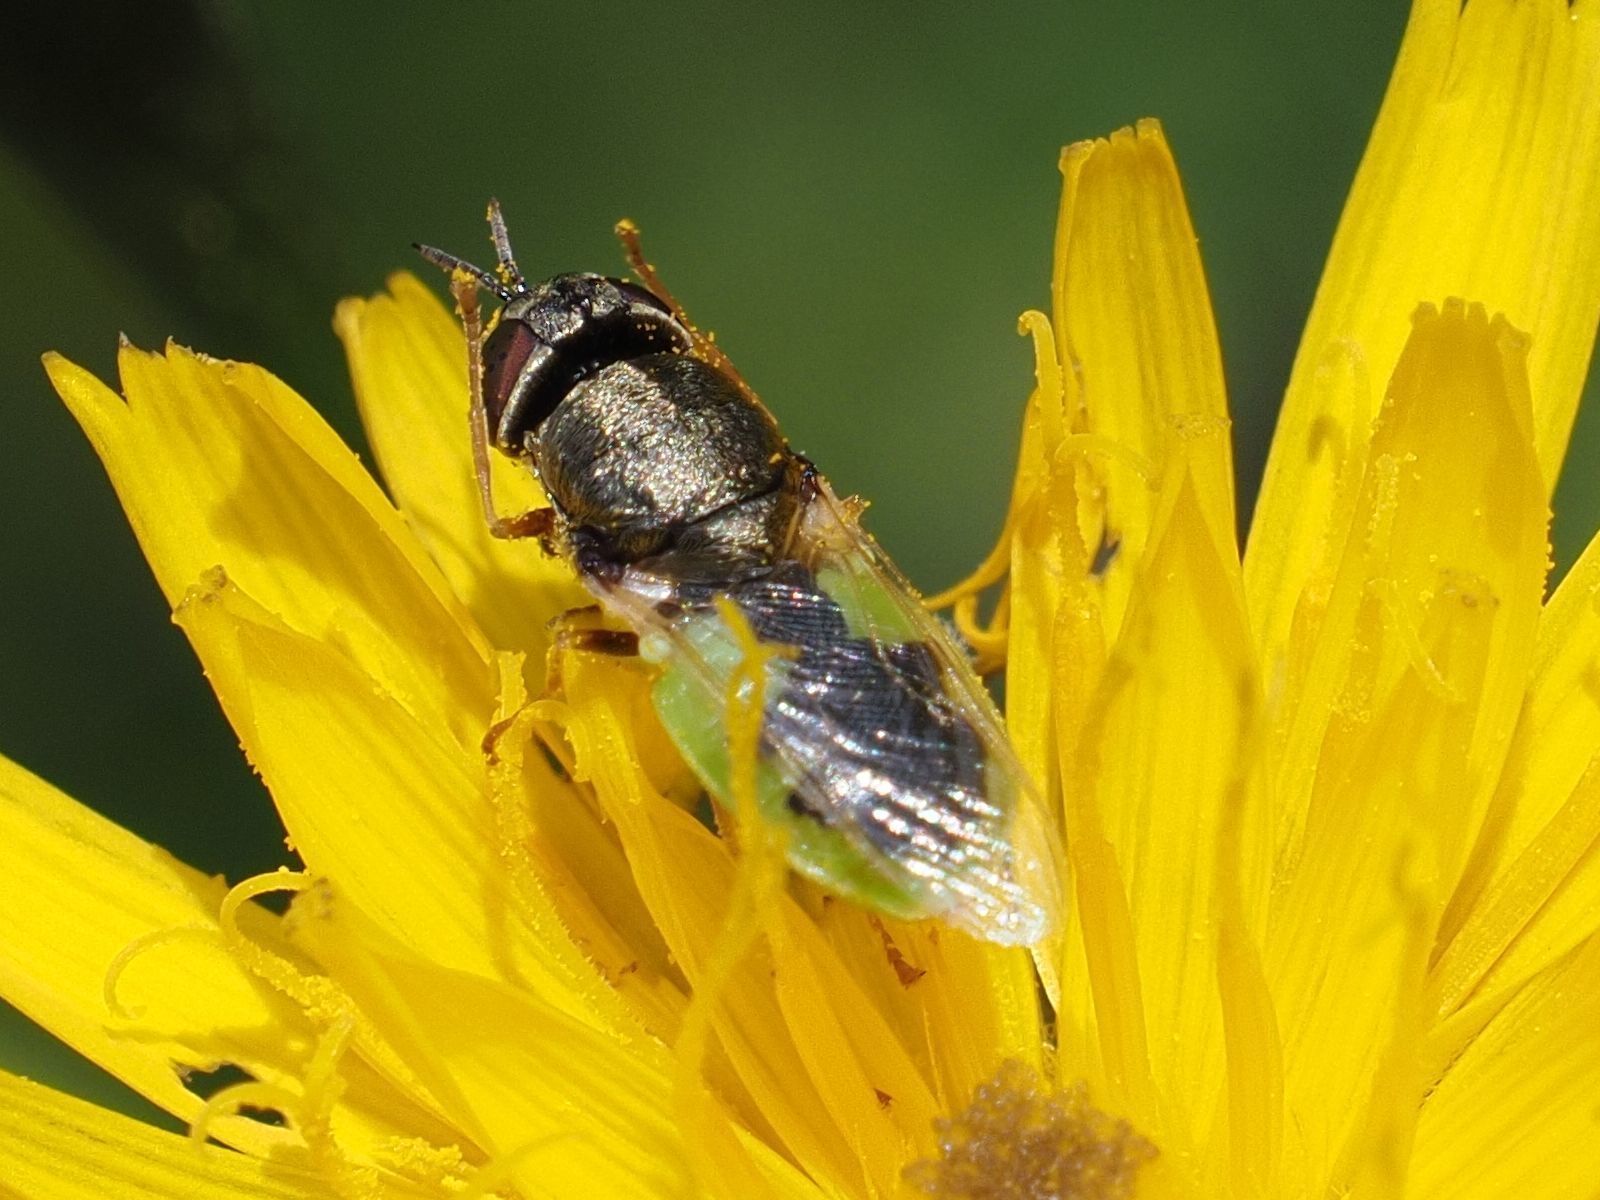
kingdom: Animalia
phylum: Arthropoda
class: Insecta
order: Diptera
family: Stratiomyidae
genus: Oplodontha
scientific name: Oplodontha viridula
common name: Common green colonel
